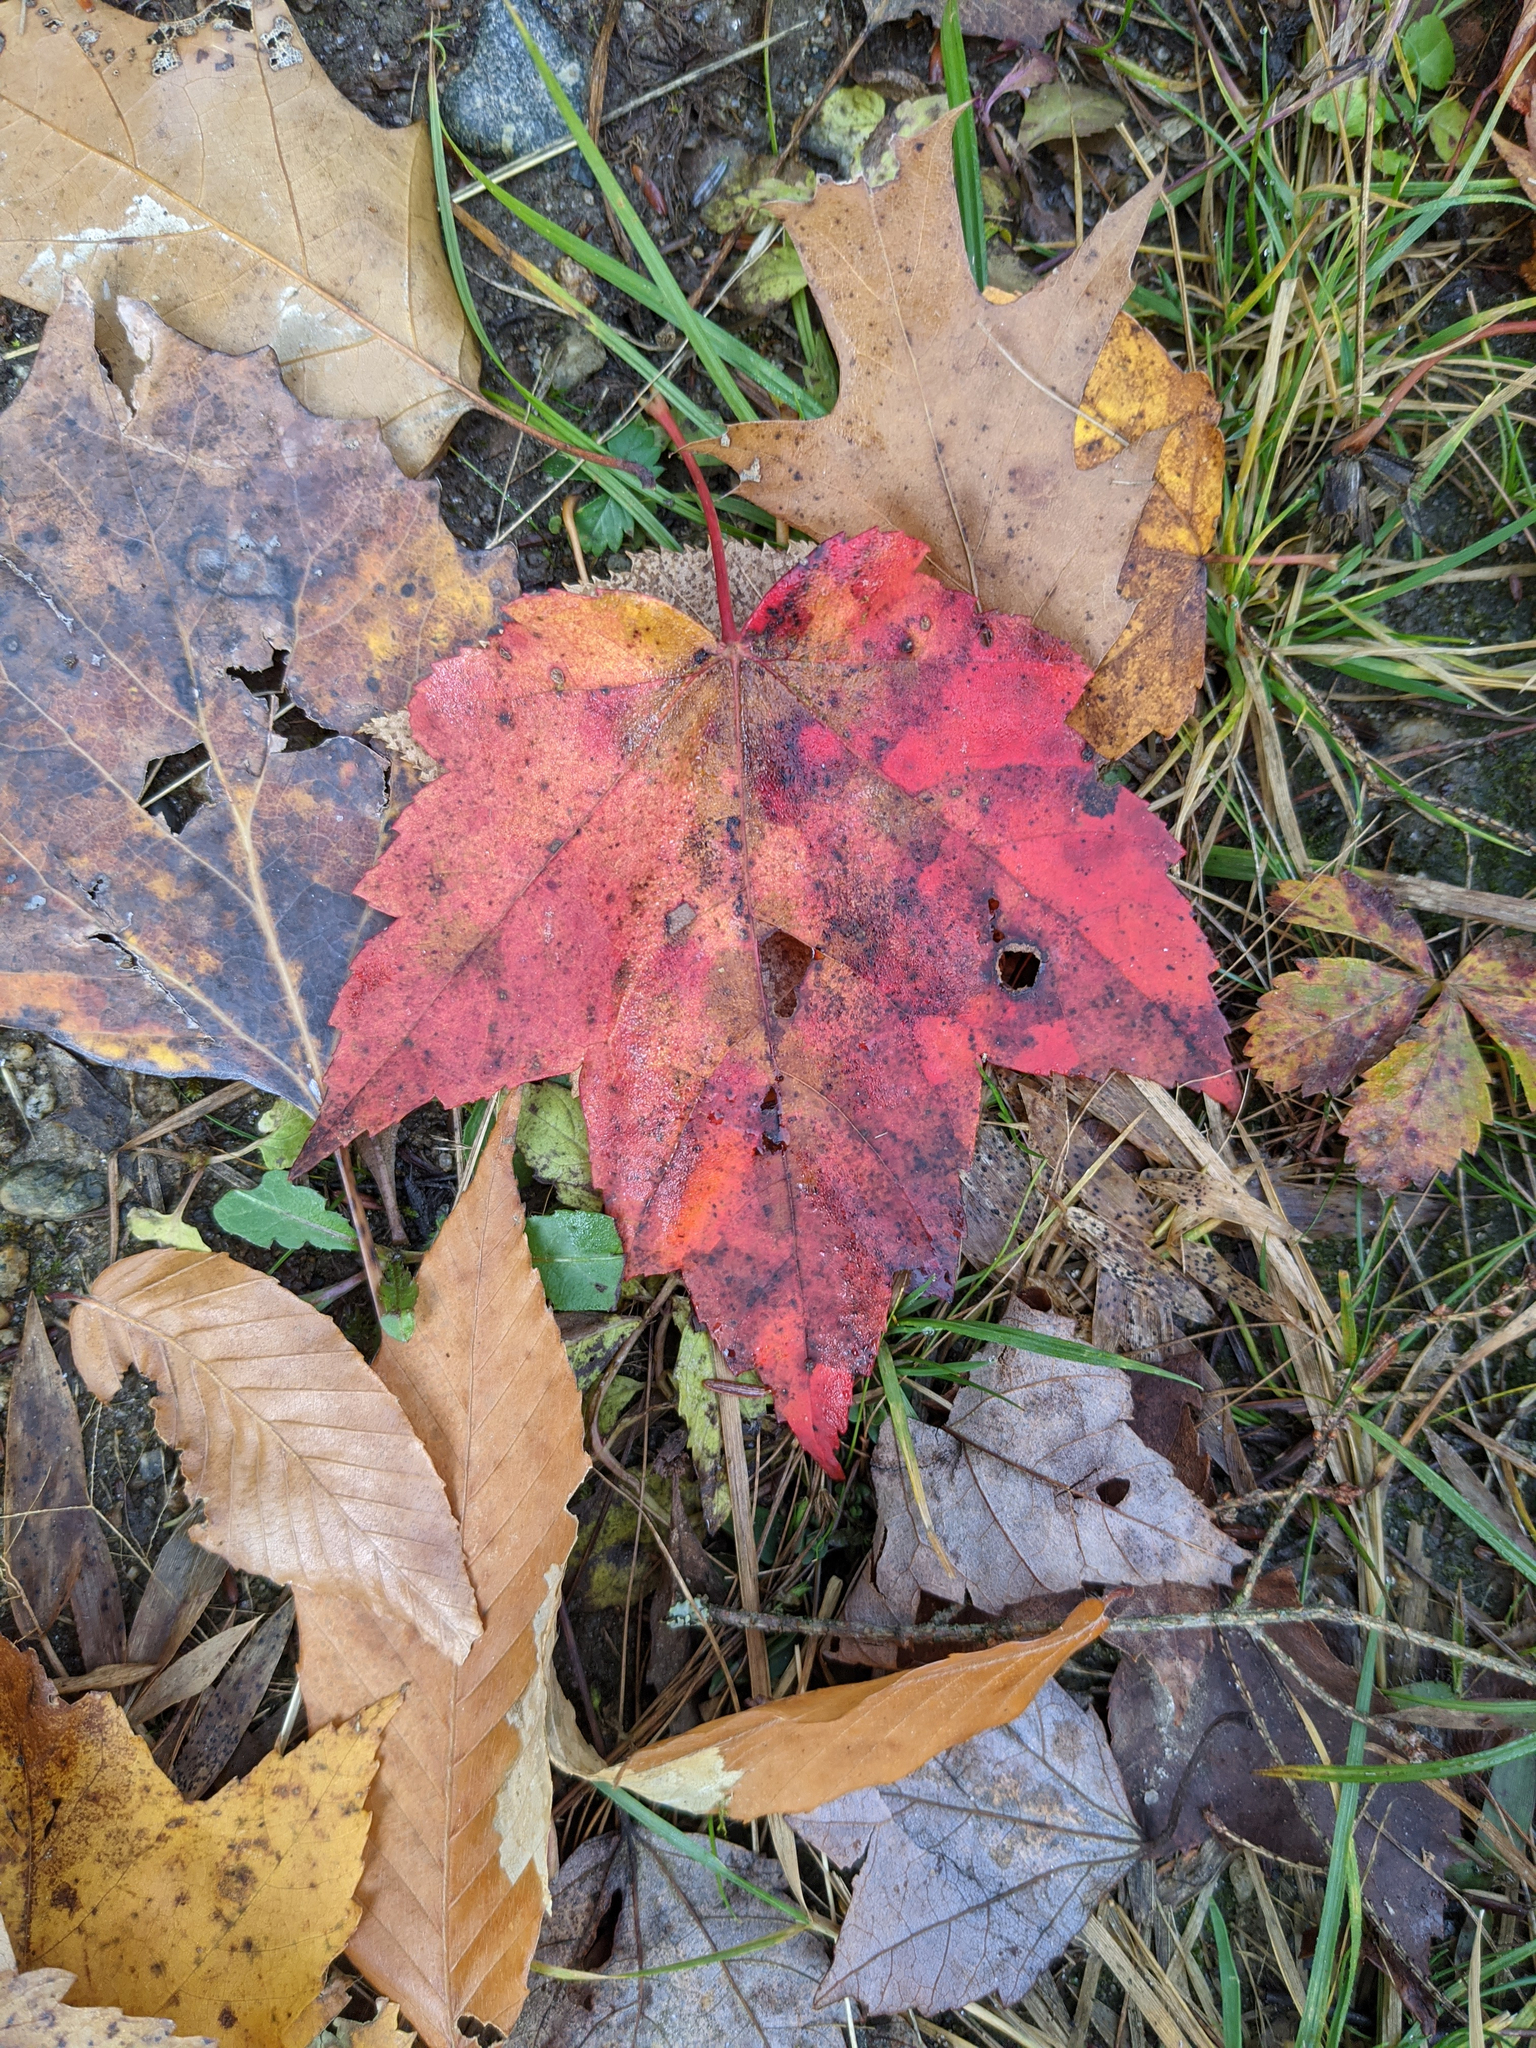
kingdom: Plantae
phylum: Tracheophyta
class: Magnoliopsida
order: Sapindales
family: Sapindaceae
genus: Acer
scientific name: Acer rubrum
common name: Red maple
